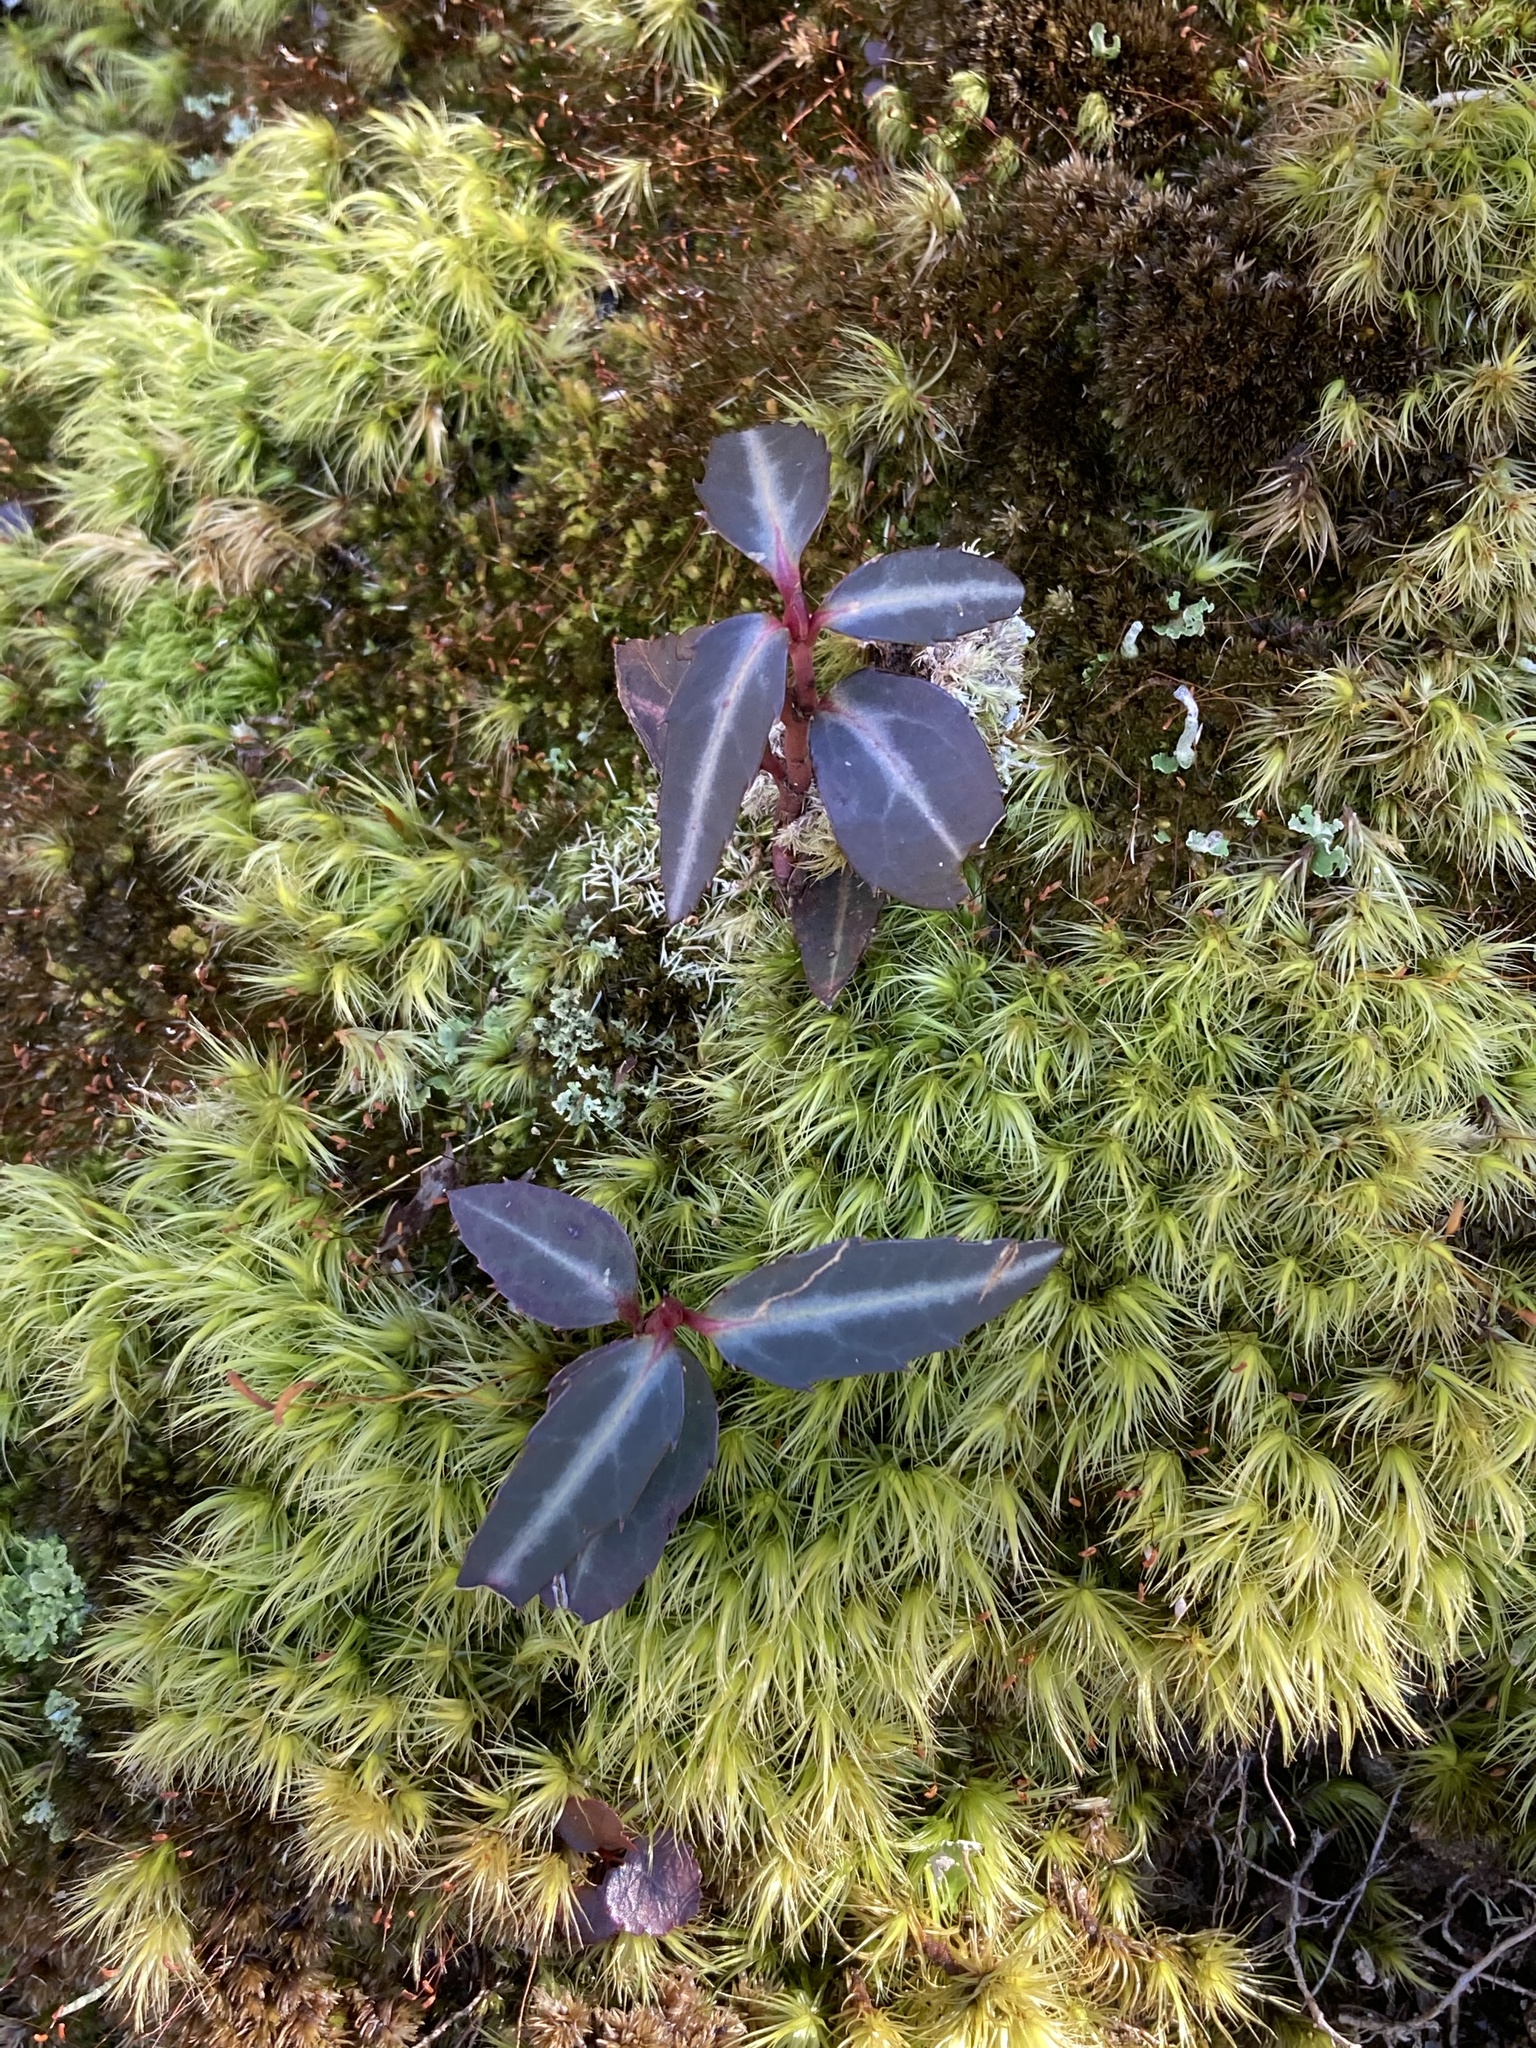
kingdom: Plantae
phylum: Tracheophyta
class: Magnoliopsida
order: Ericales
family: Ericaceae
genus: Chimaphila
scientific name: Chimaphila maculata
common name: Spotted pipsissewa
